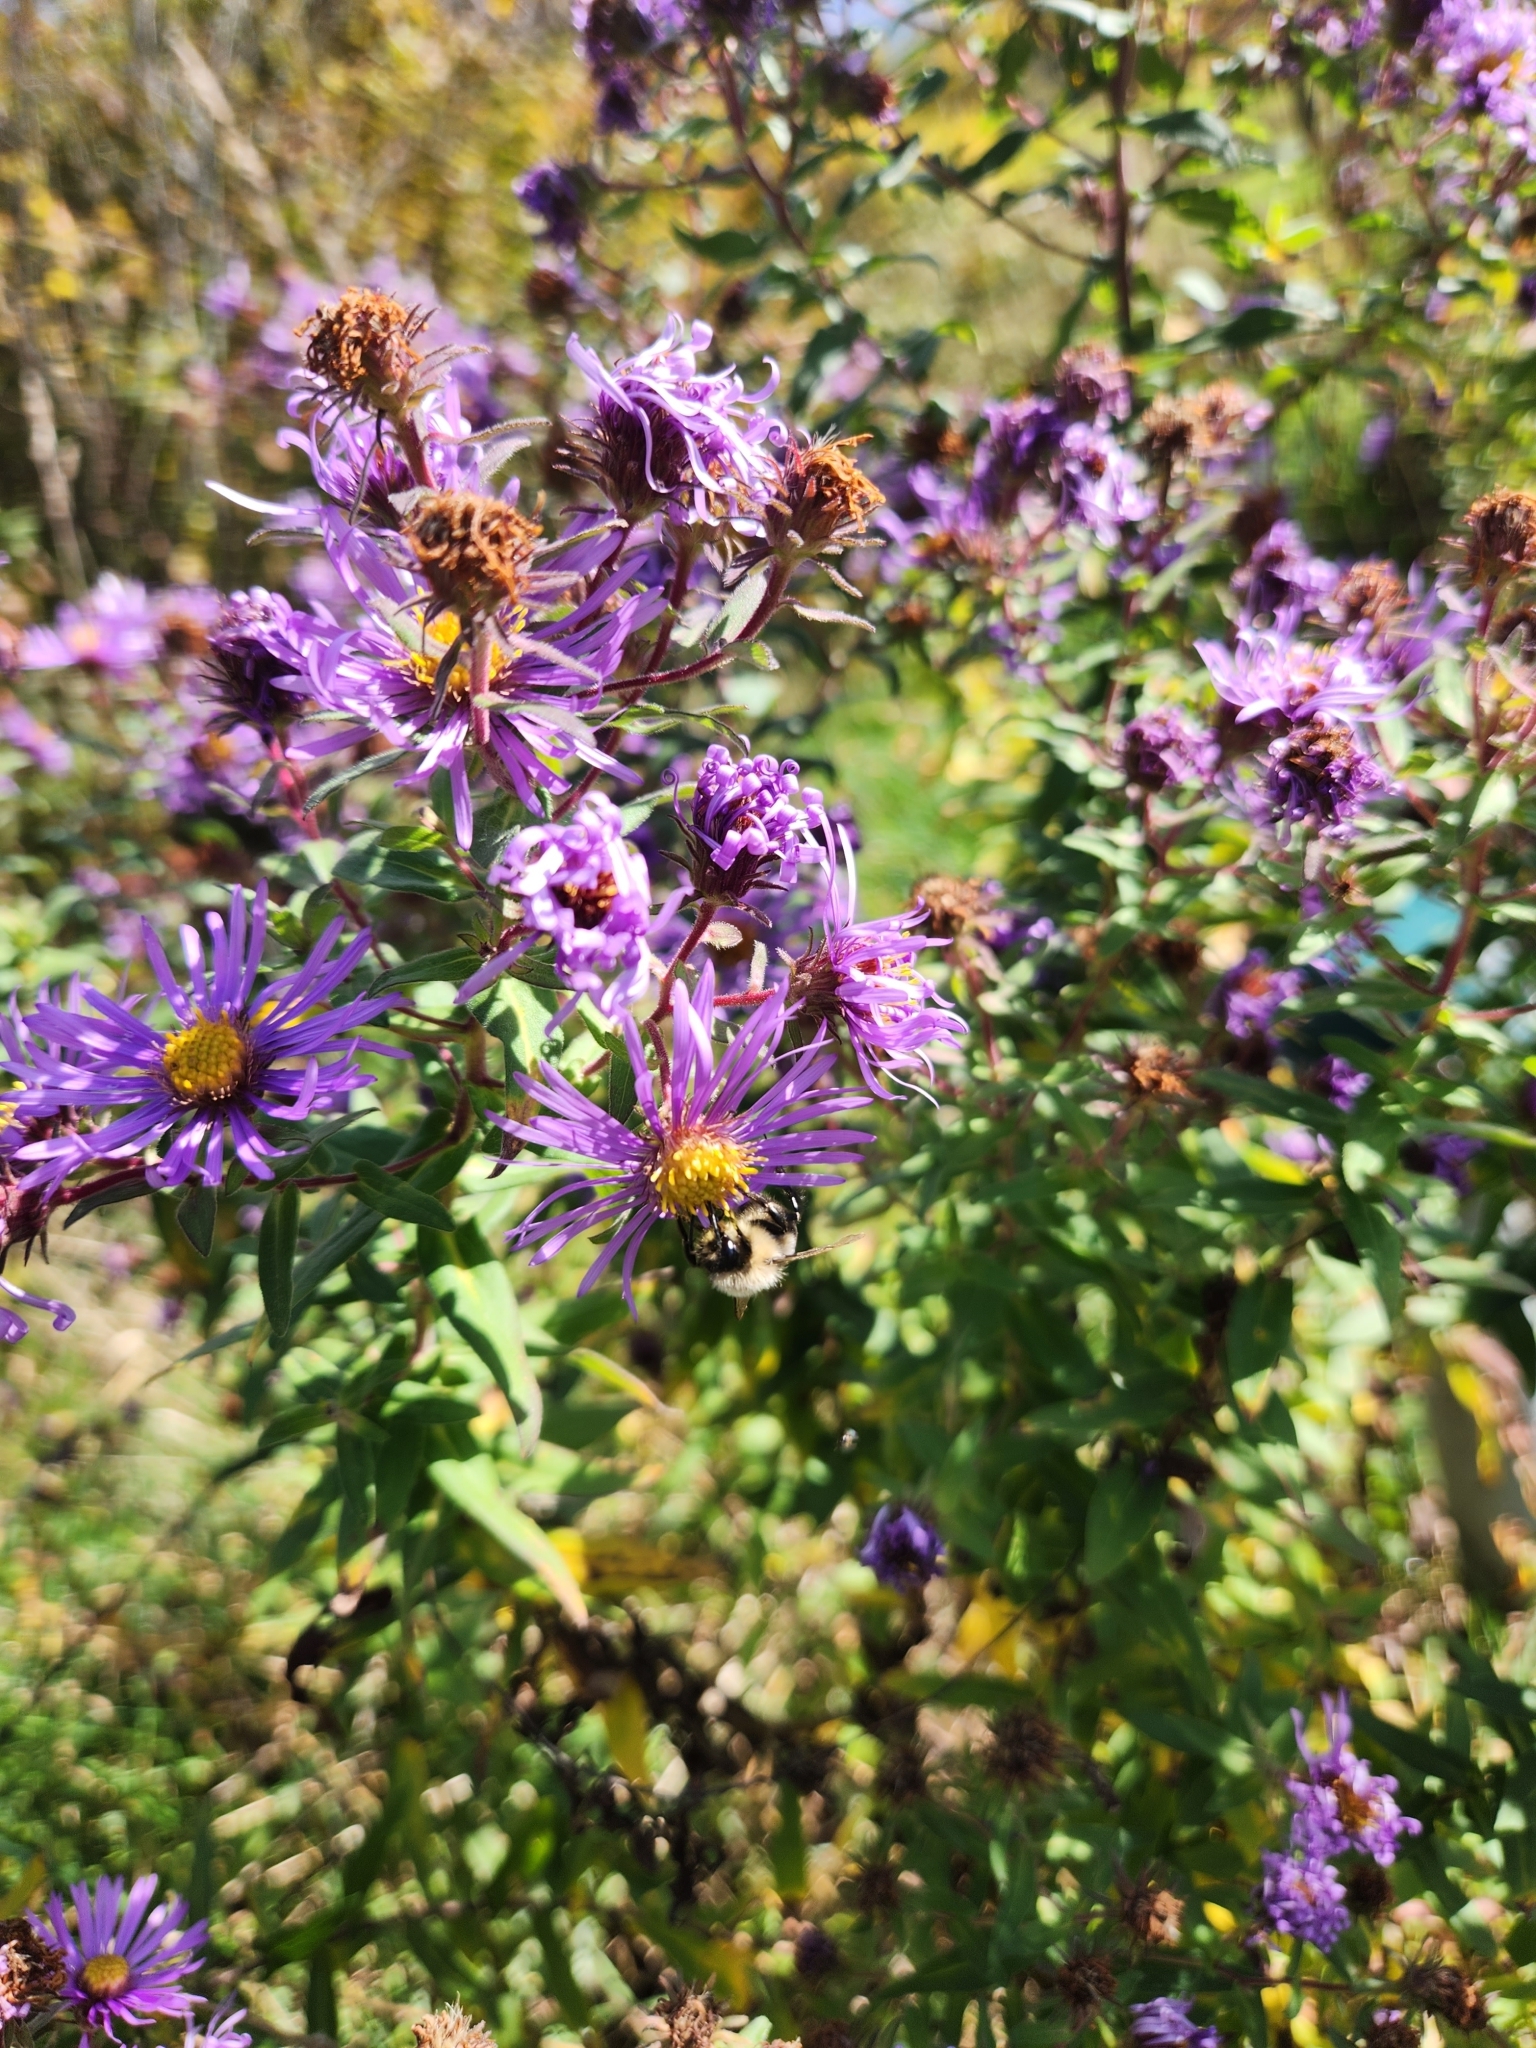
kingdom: Animalia
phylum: Arthropoda
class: Insecta
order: Hymenoptera
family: Apidae
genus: Bombus
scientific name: Bombus impatiens
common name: Common eastern bumble bee
